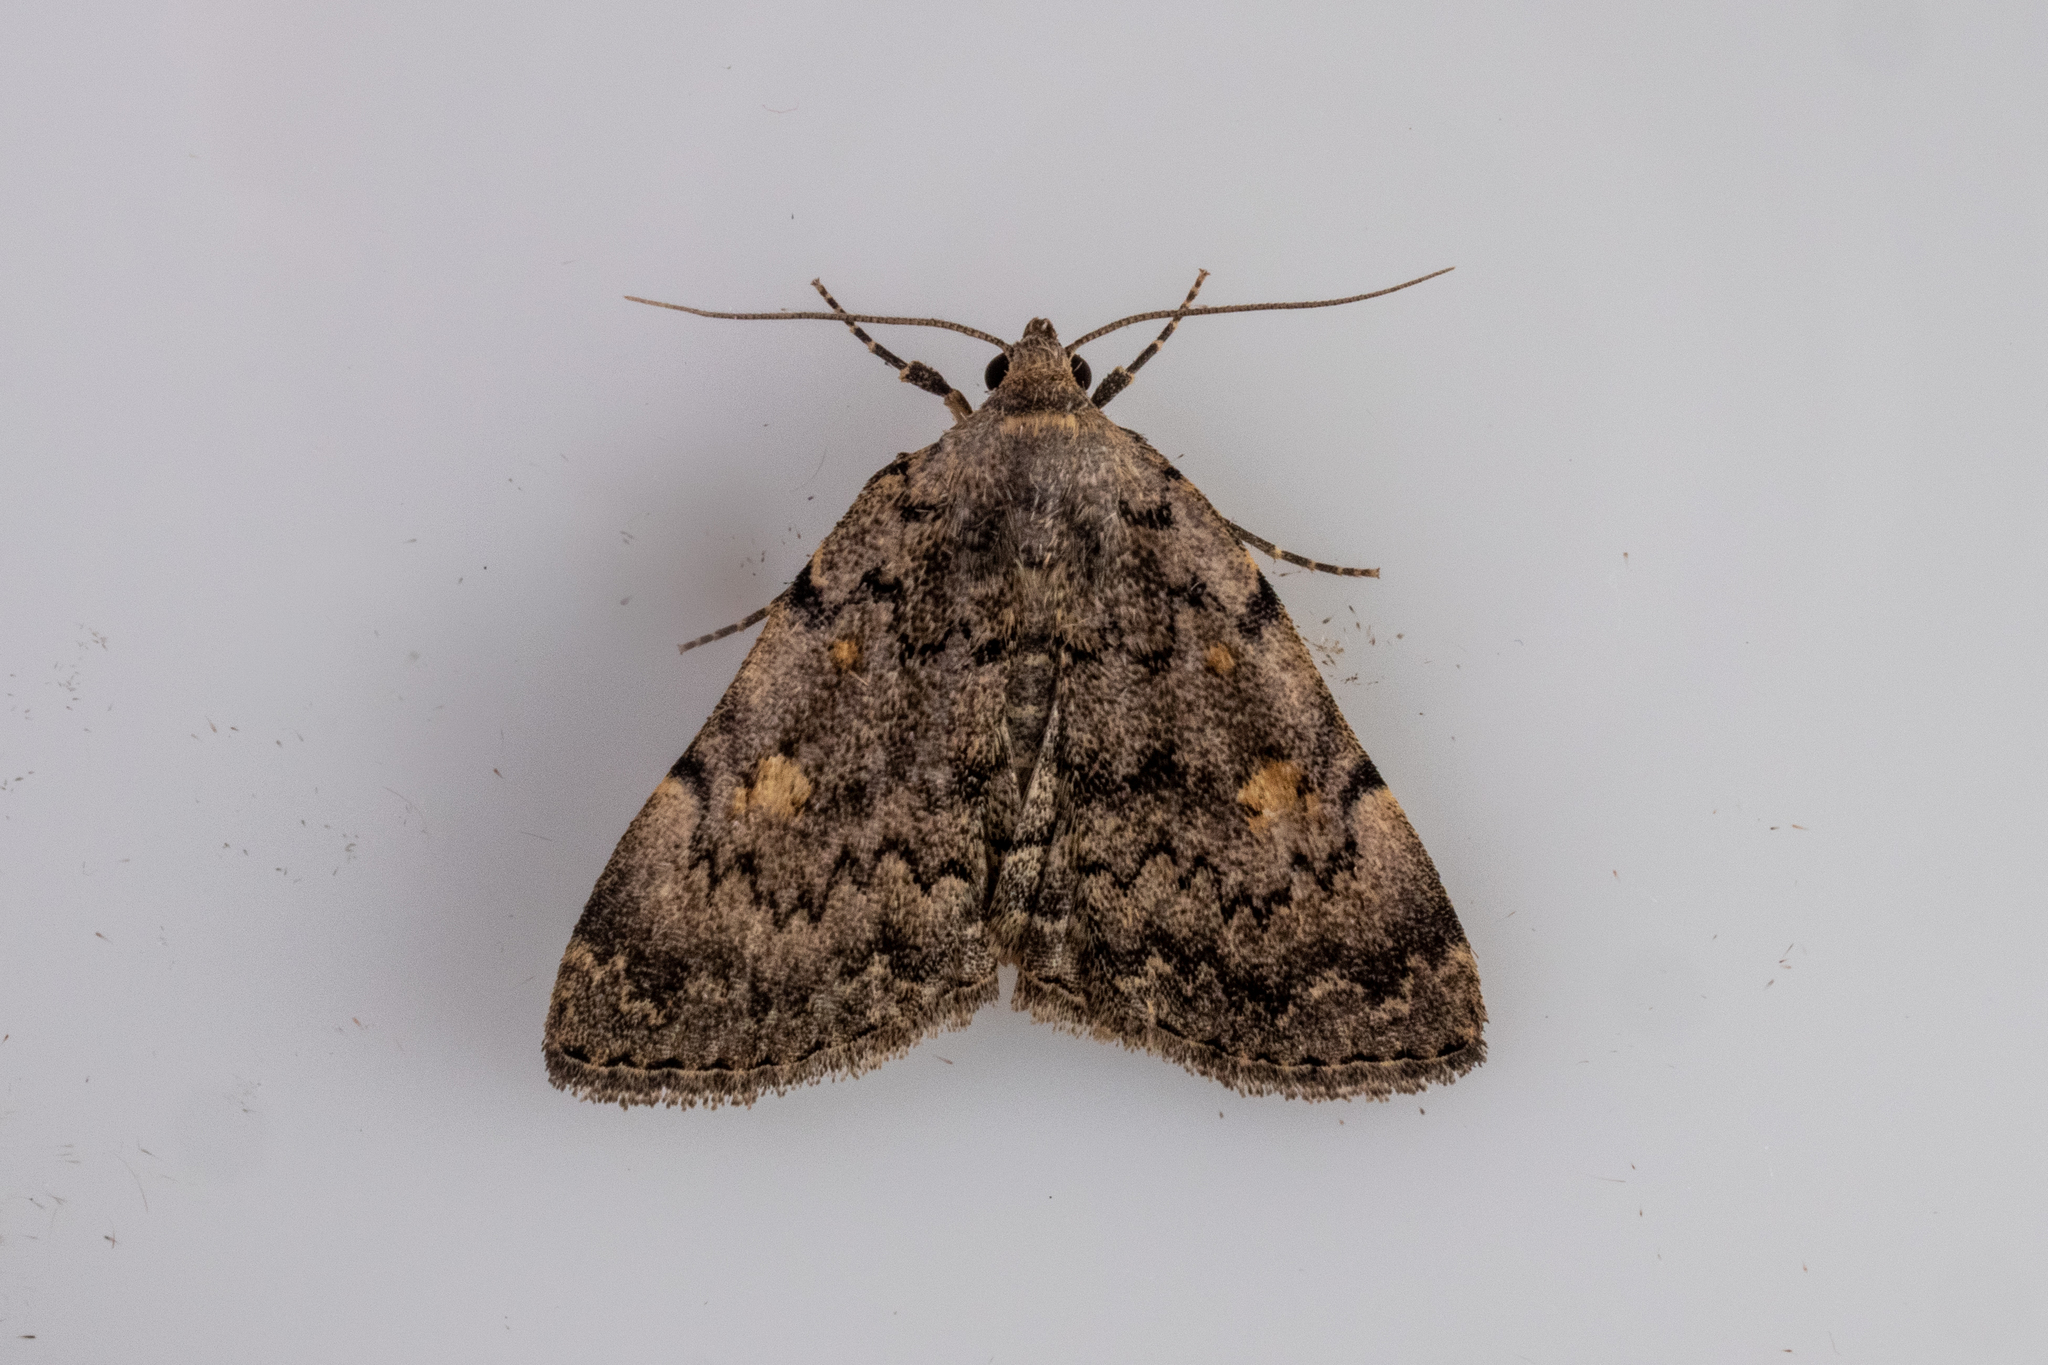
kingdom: Animalia
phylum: Arthropoda
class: Insecta
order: Lepidoptera
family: Erebidae
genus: Idia
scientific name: Idia americalis
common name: American idia moth
